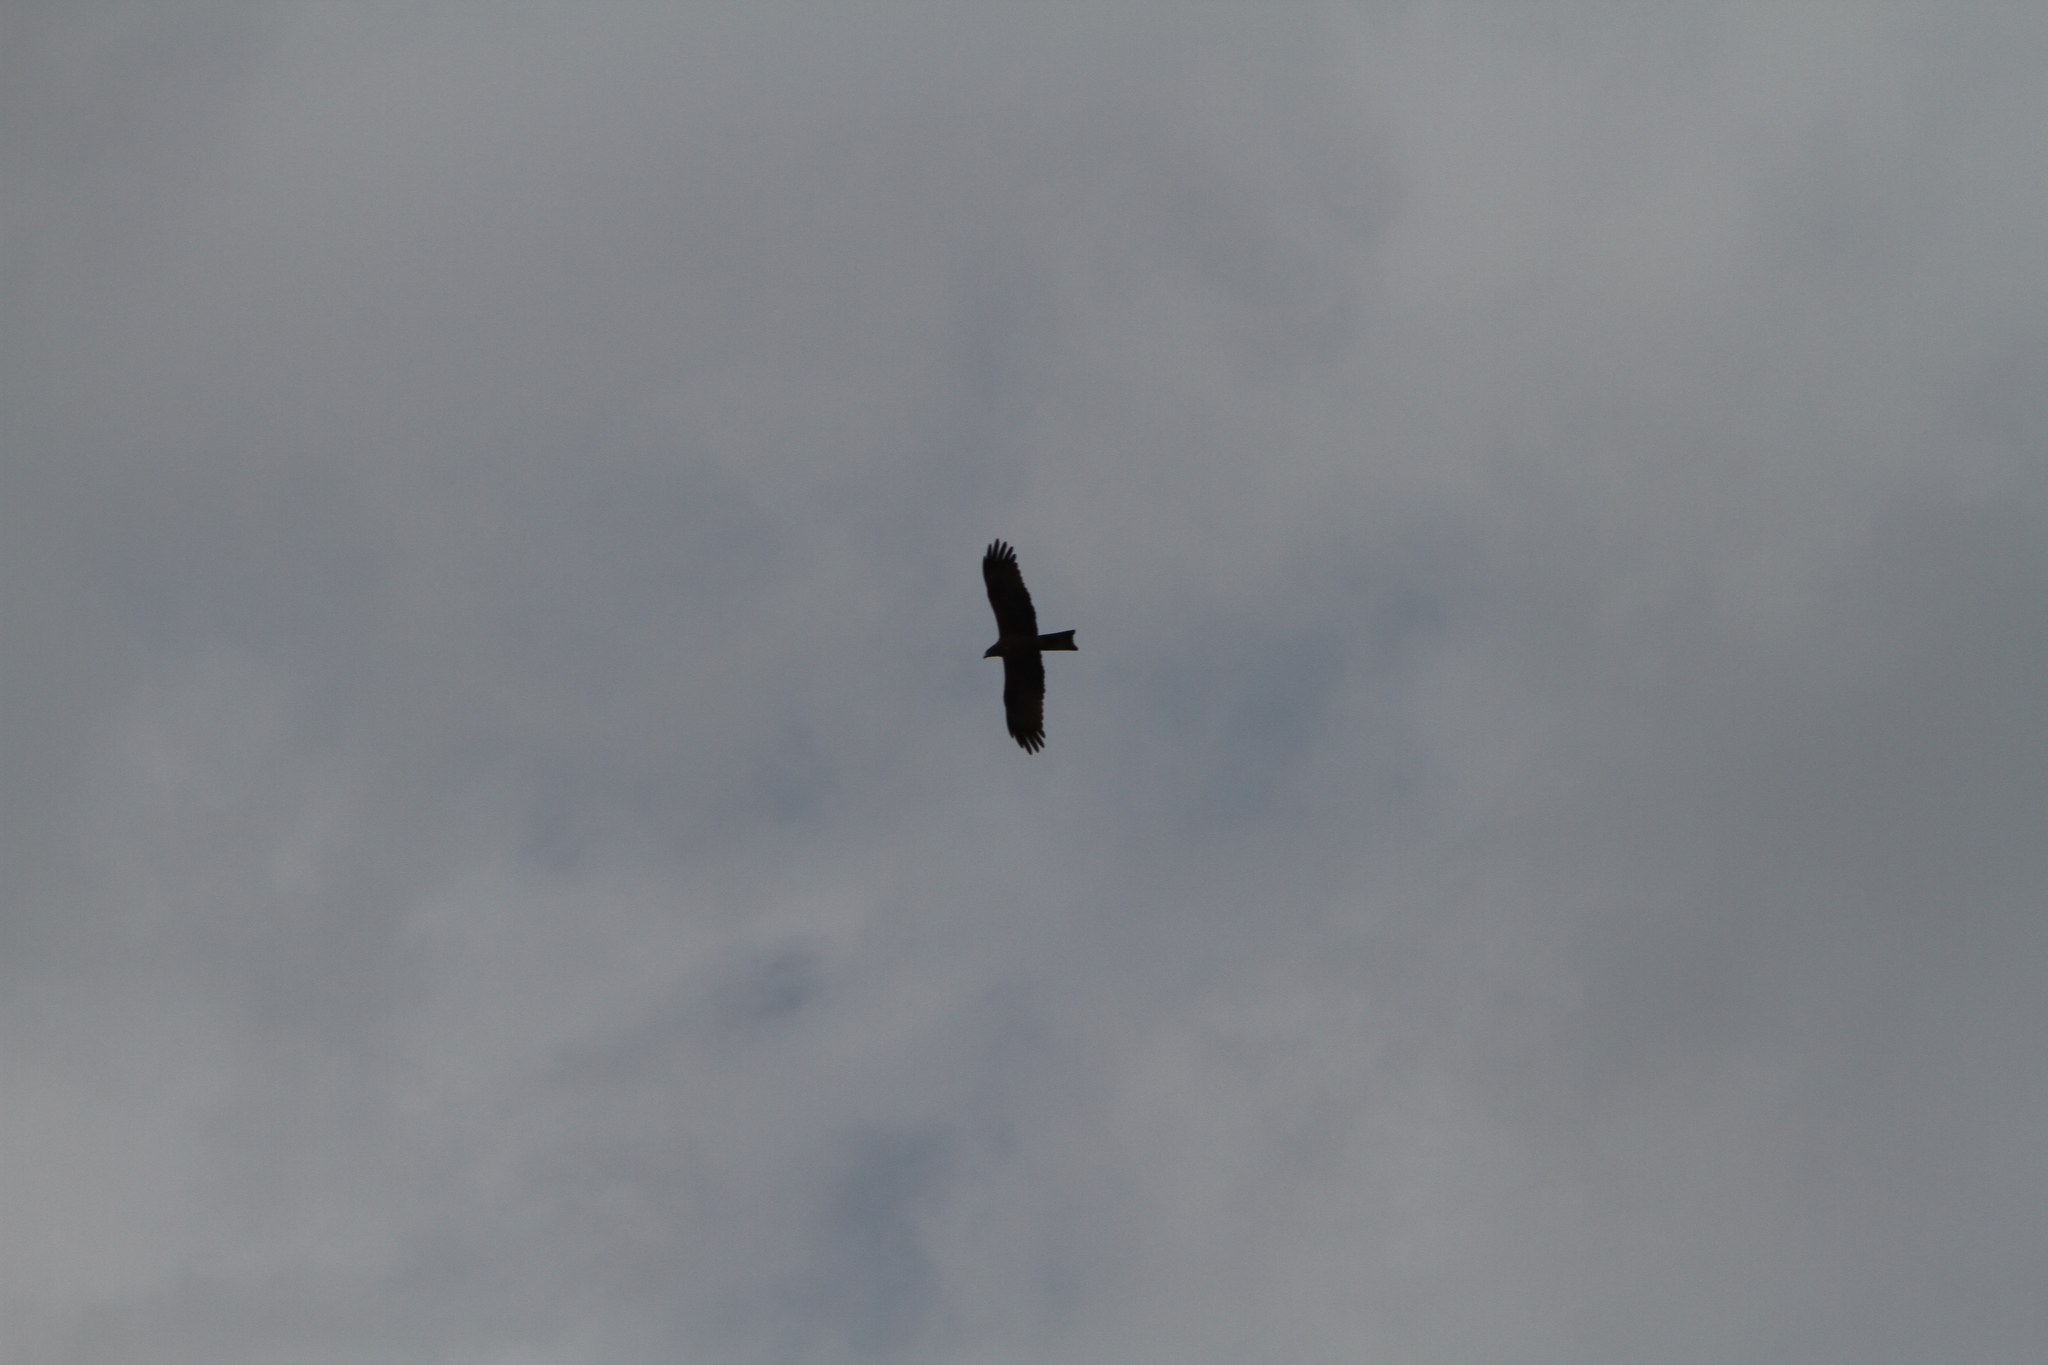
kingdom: Animalia
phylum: Chordata
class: Aves
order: Accipitriformes
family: Accipitridae
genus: Milvus
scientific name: Milvus migrans
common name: Black kite
